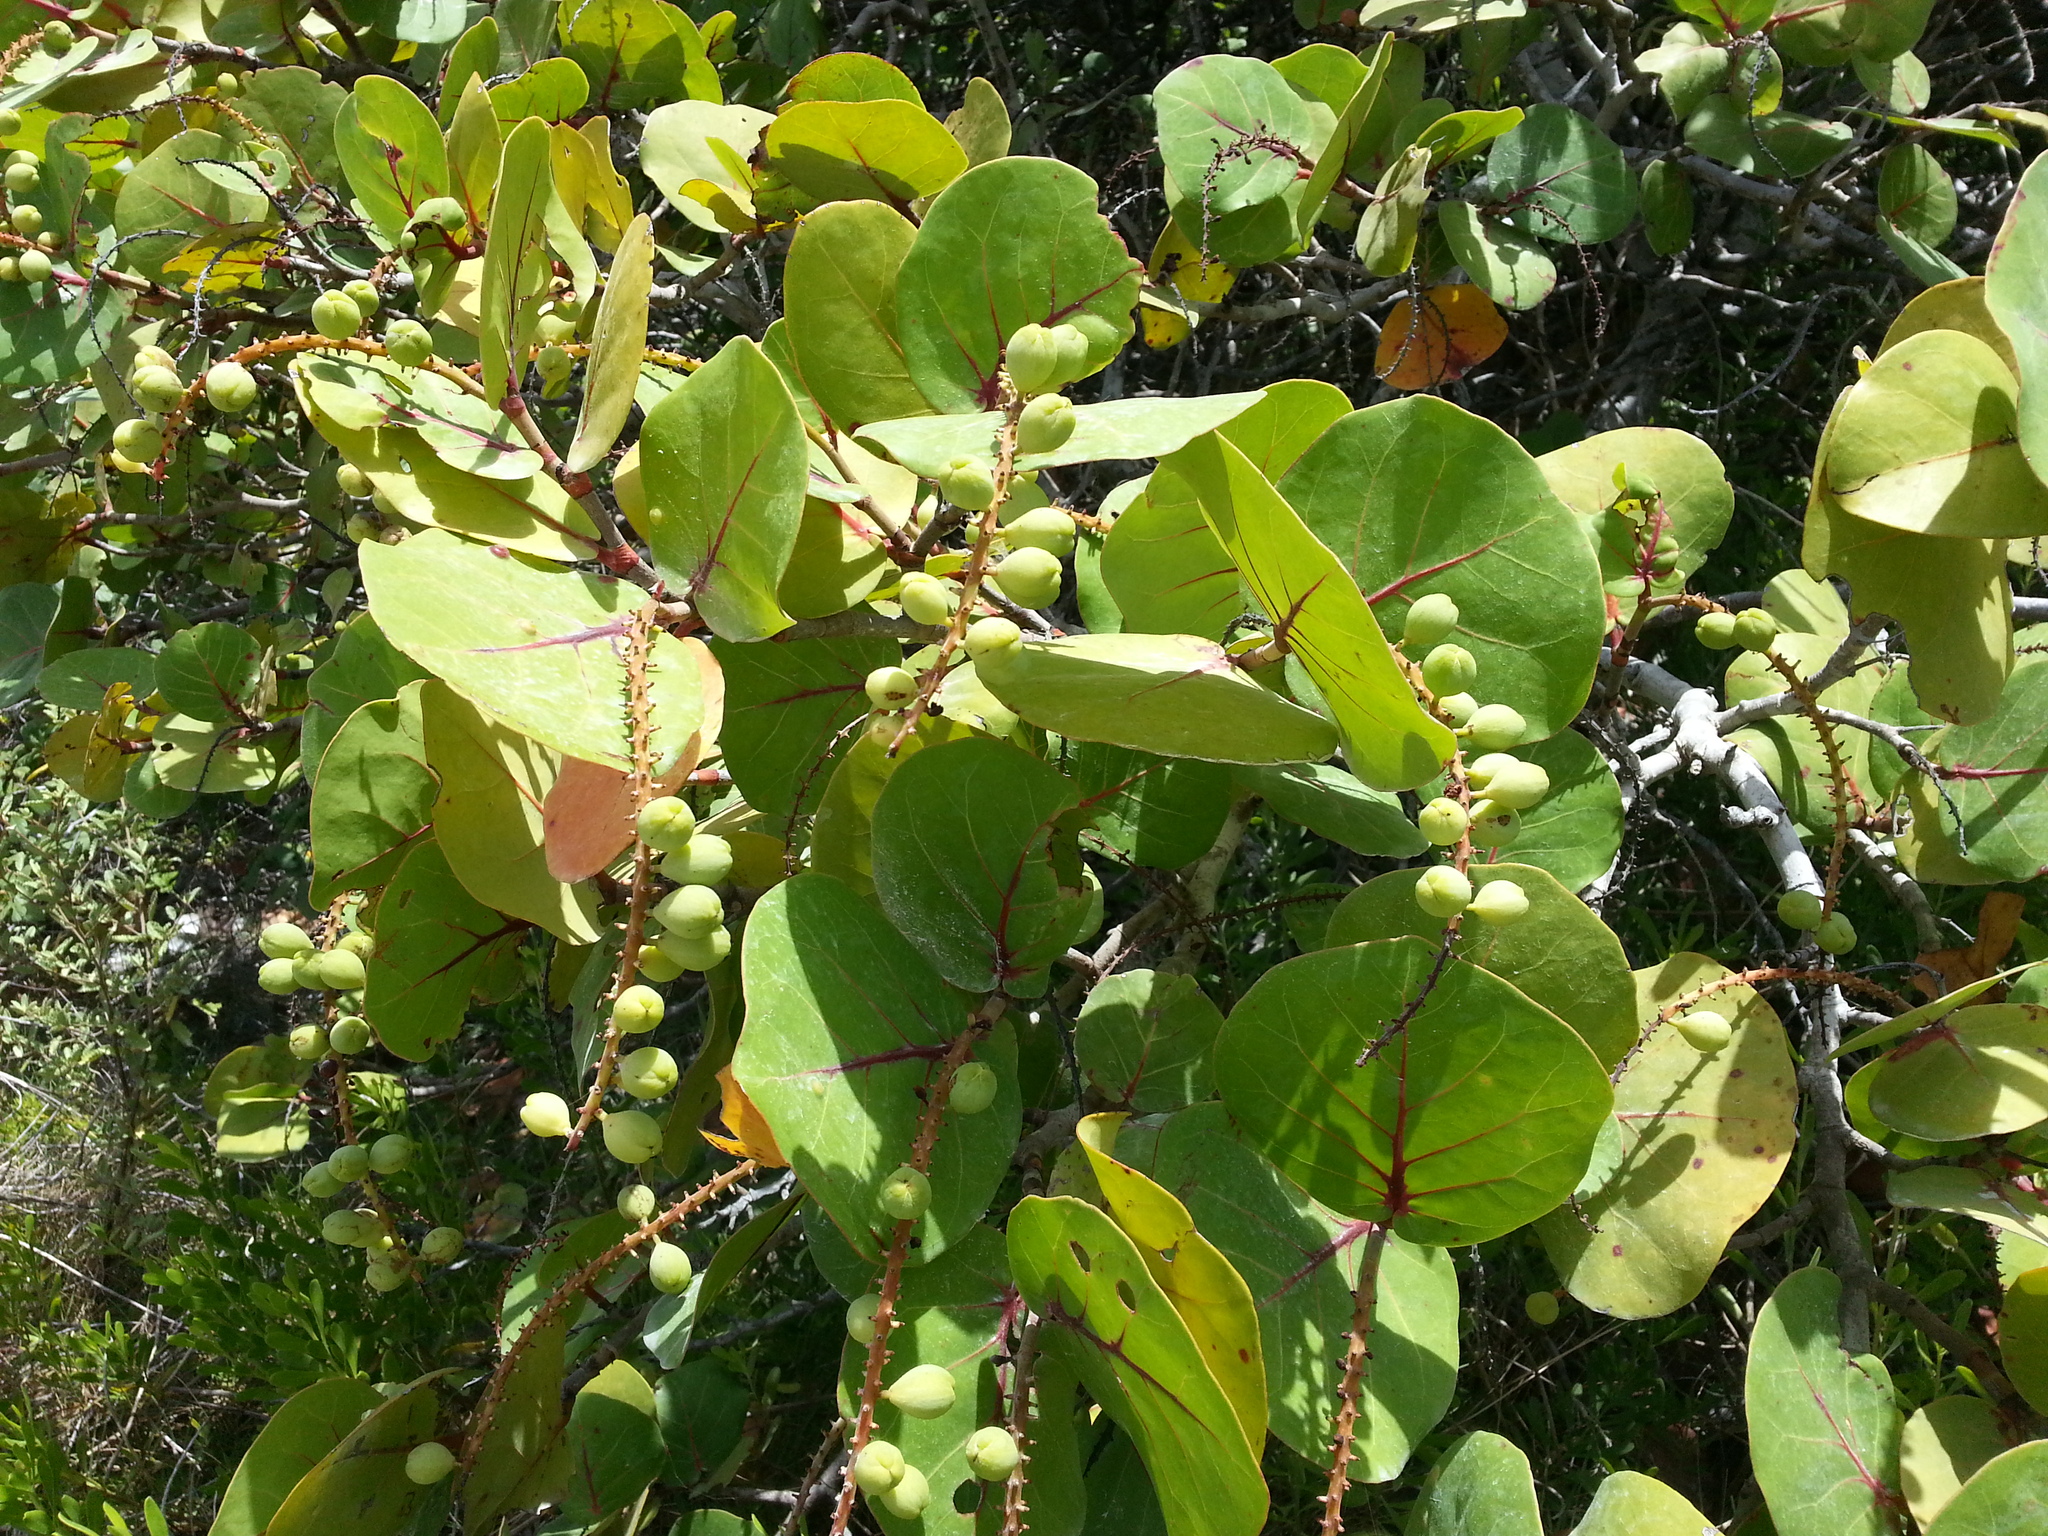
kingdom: Plantae
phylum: Tracheophyta
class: Magnoliopsida
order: Caryophyllales
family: Polygonaceae
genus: Coccoloba
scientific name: Coccoloba uvifera
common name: Seagrape
